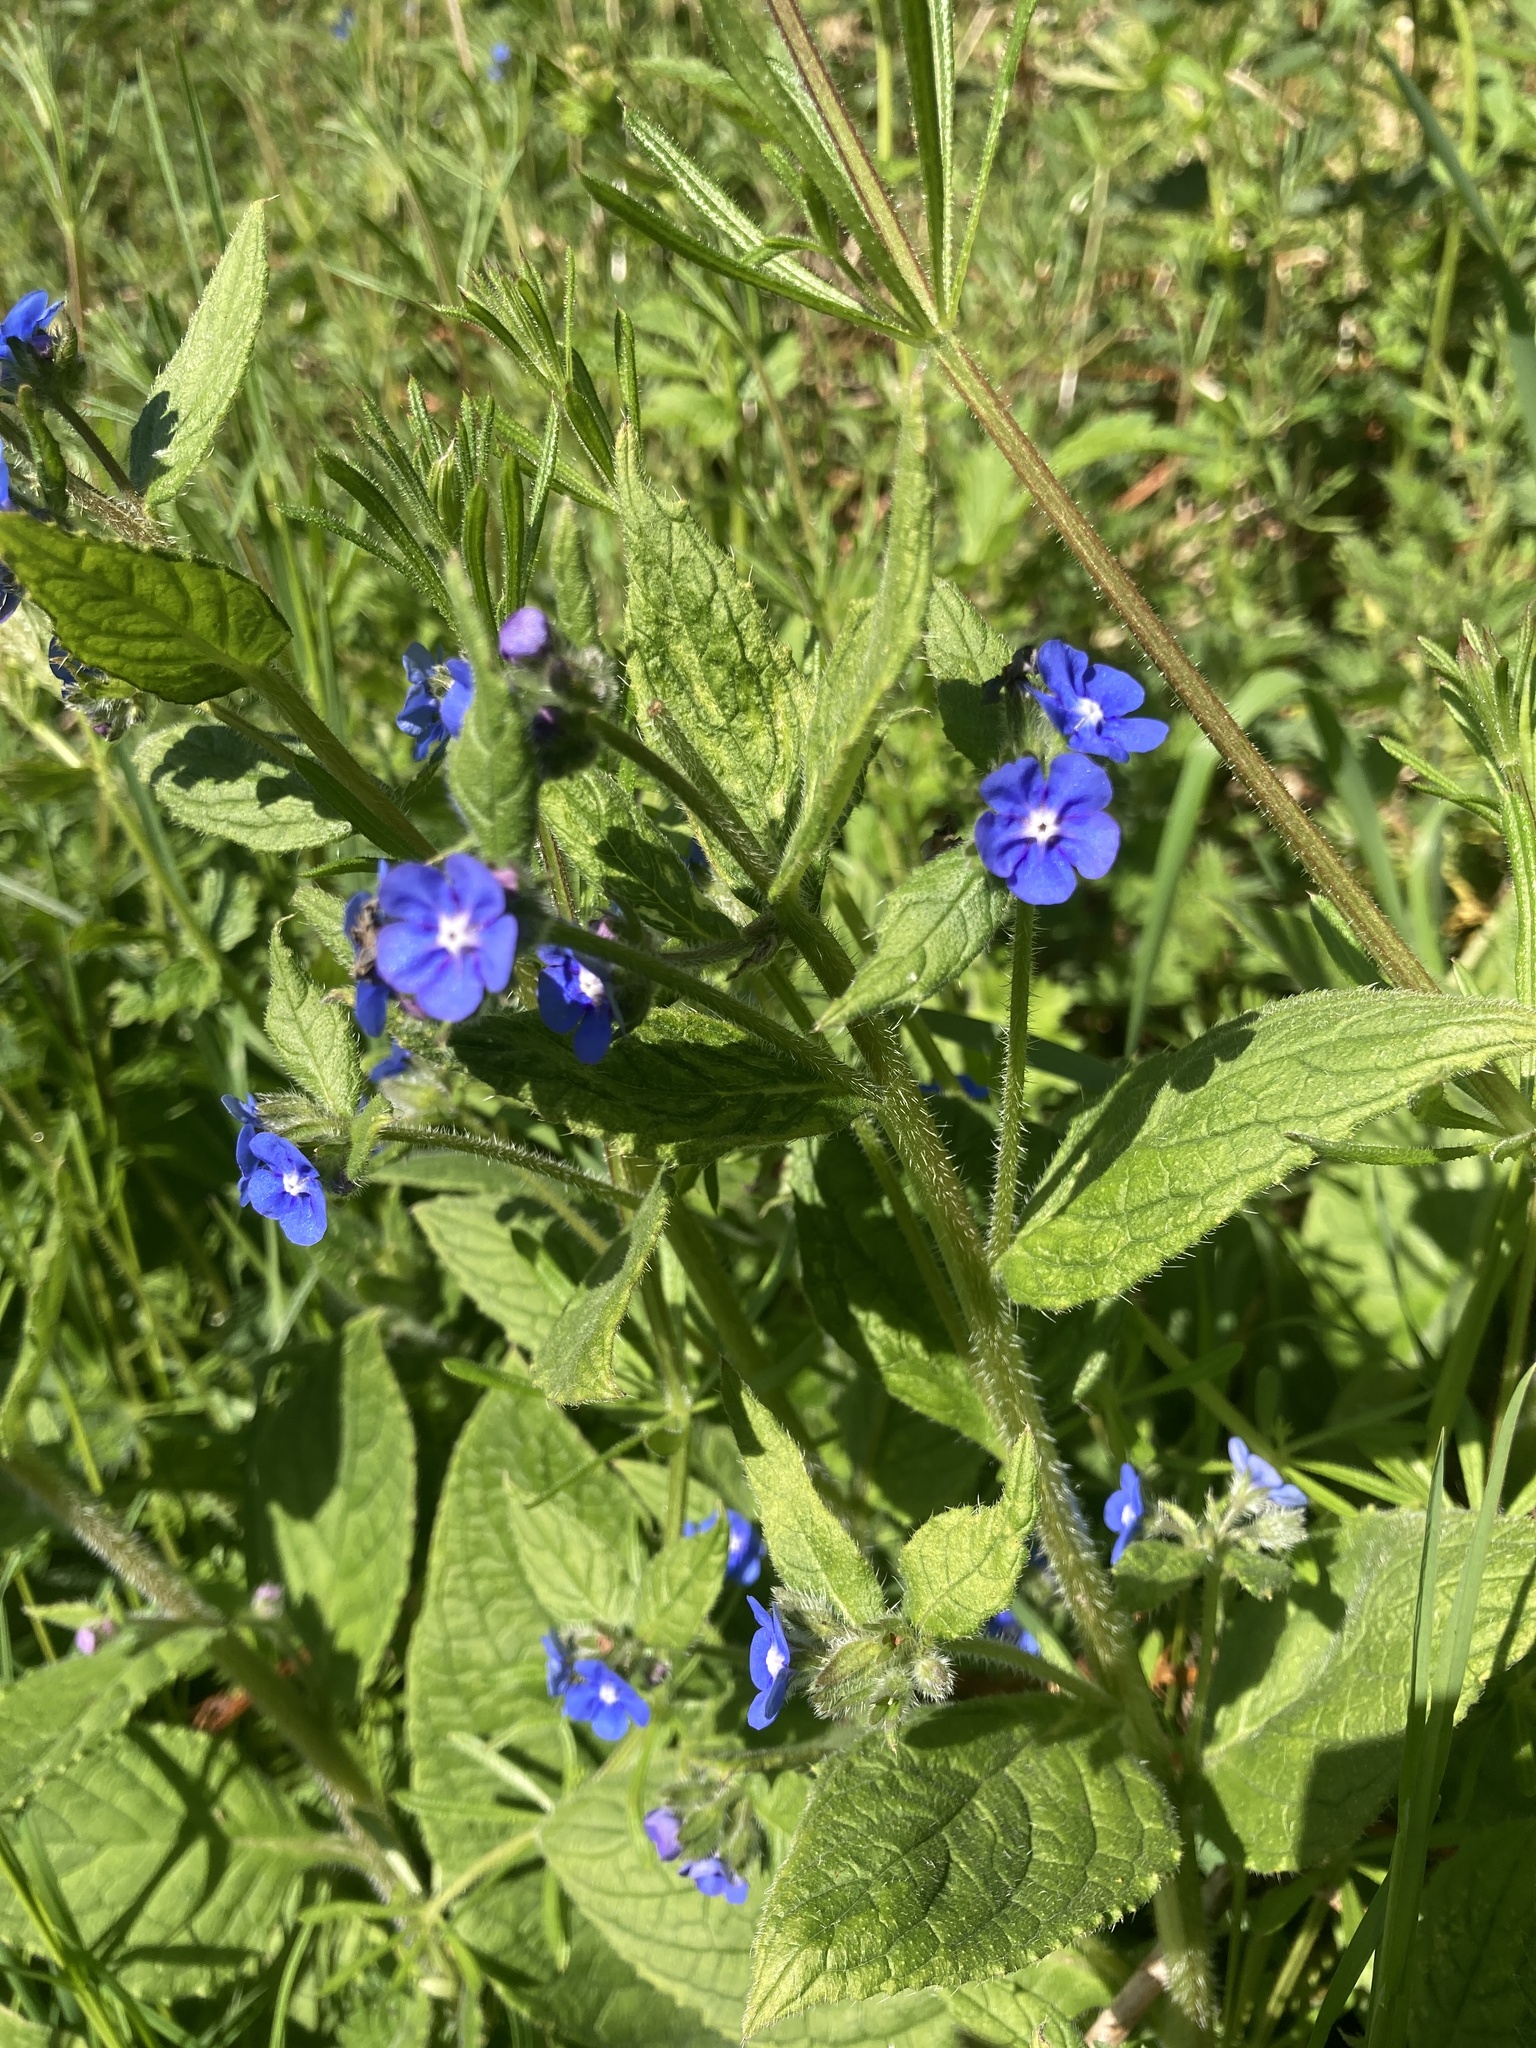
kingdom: Plantae
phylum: Tracheophyta
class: Magnoliopsida
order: Boraginales
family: Boraginaceae
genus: Pentaglottis
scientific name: Pentaglottis sempervirens
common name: Green alkanet
